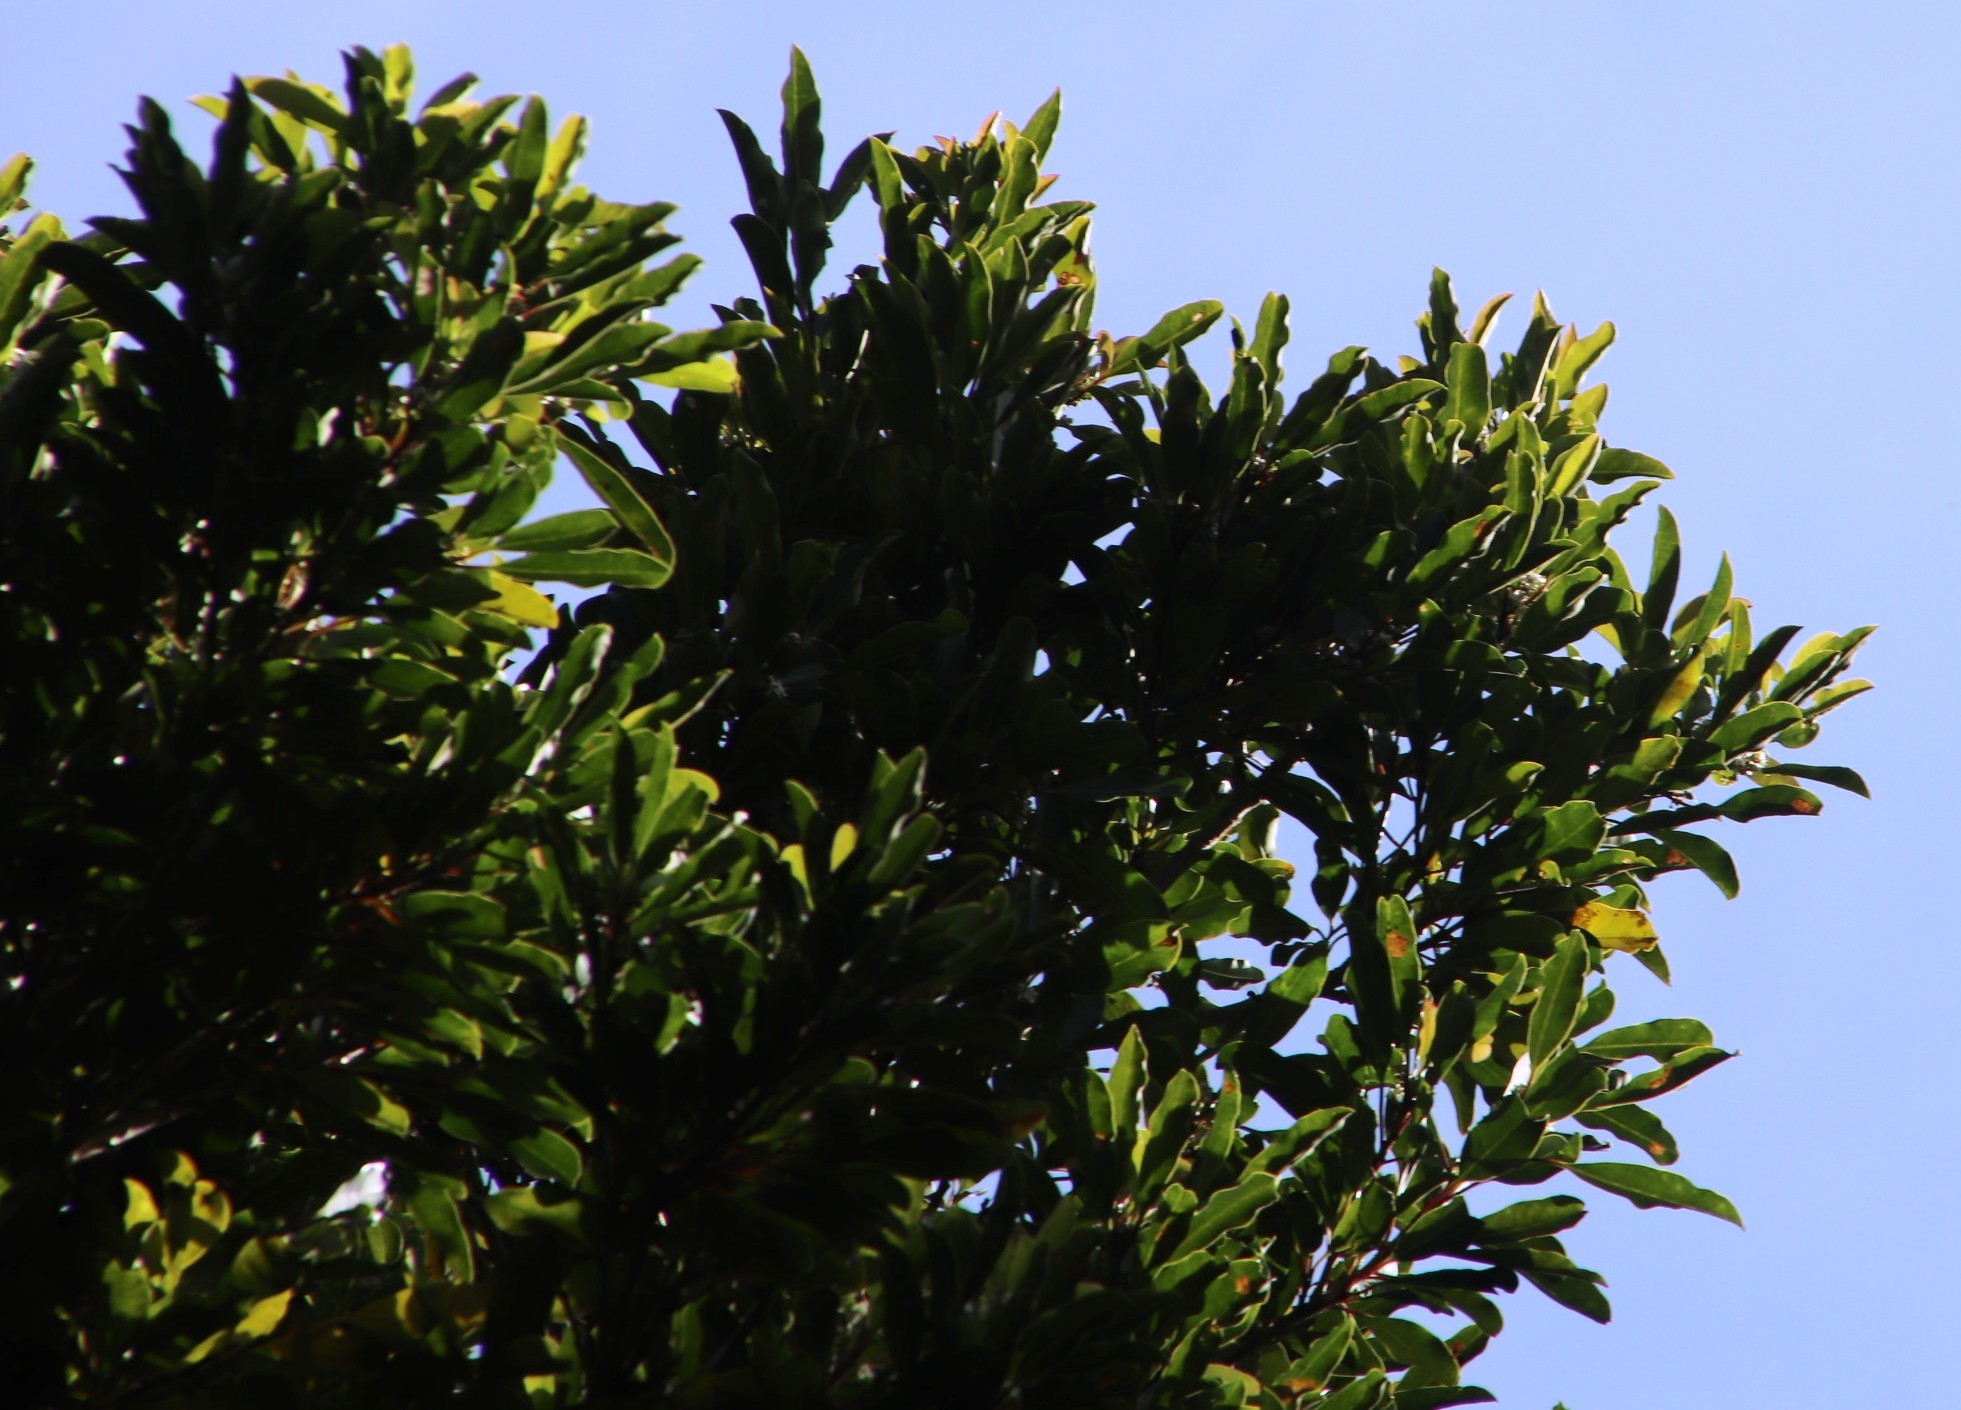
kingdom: Plantae
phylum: Tracheophyta
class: Magnoliopsida
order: Aquifoliales
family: Aquifoliaceae
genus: Ilex
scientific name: Ilex mitis
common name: African holly
